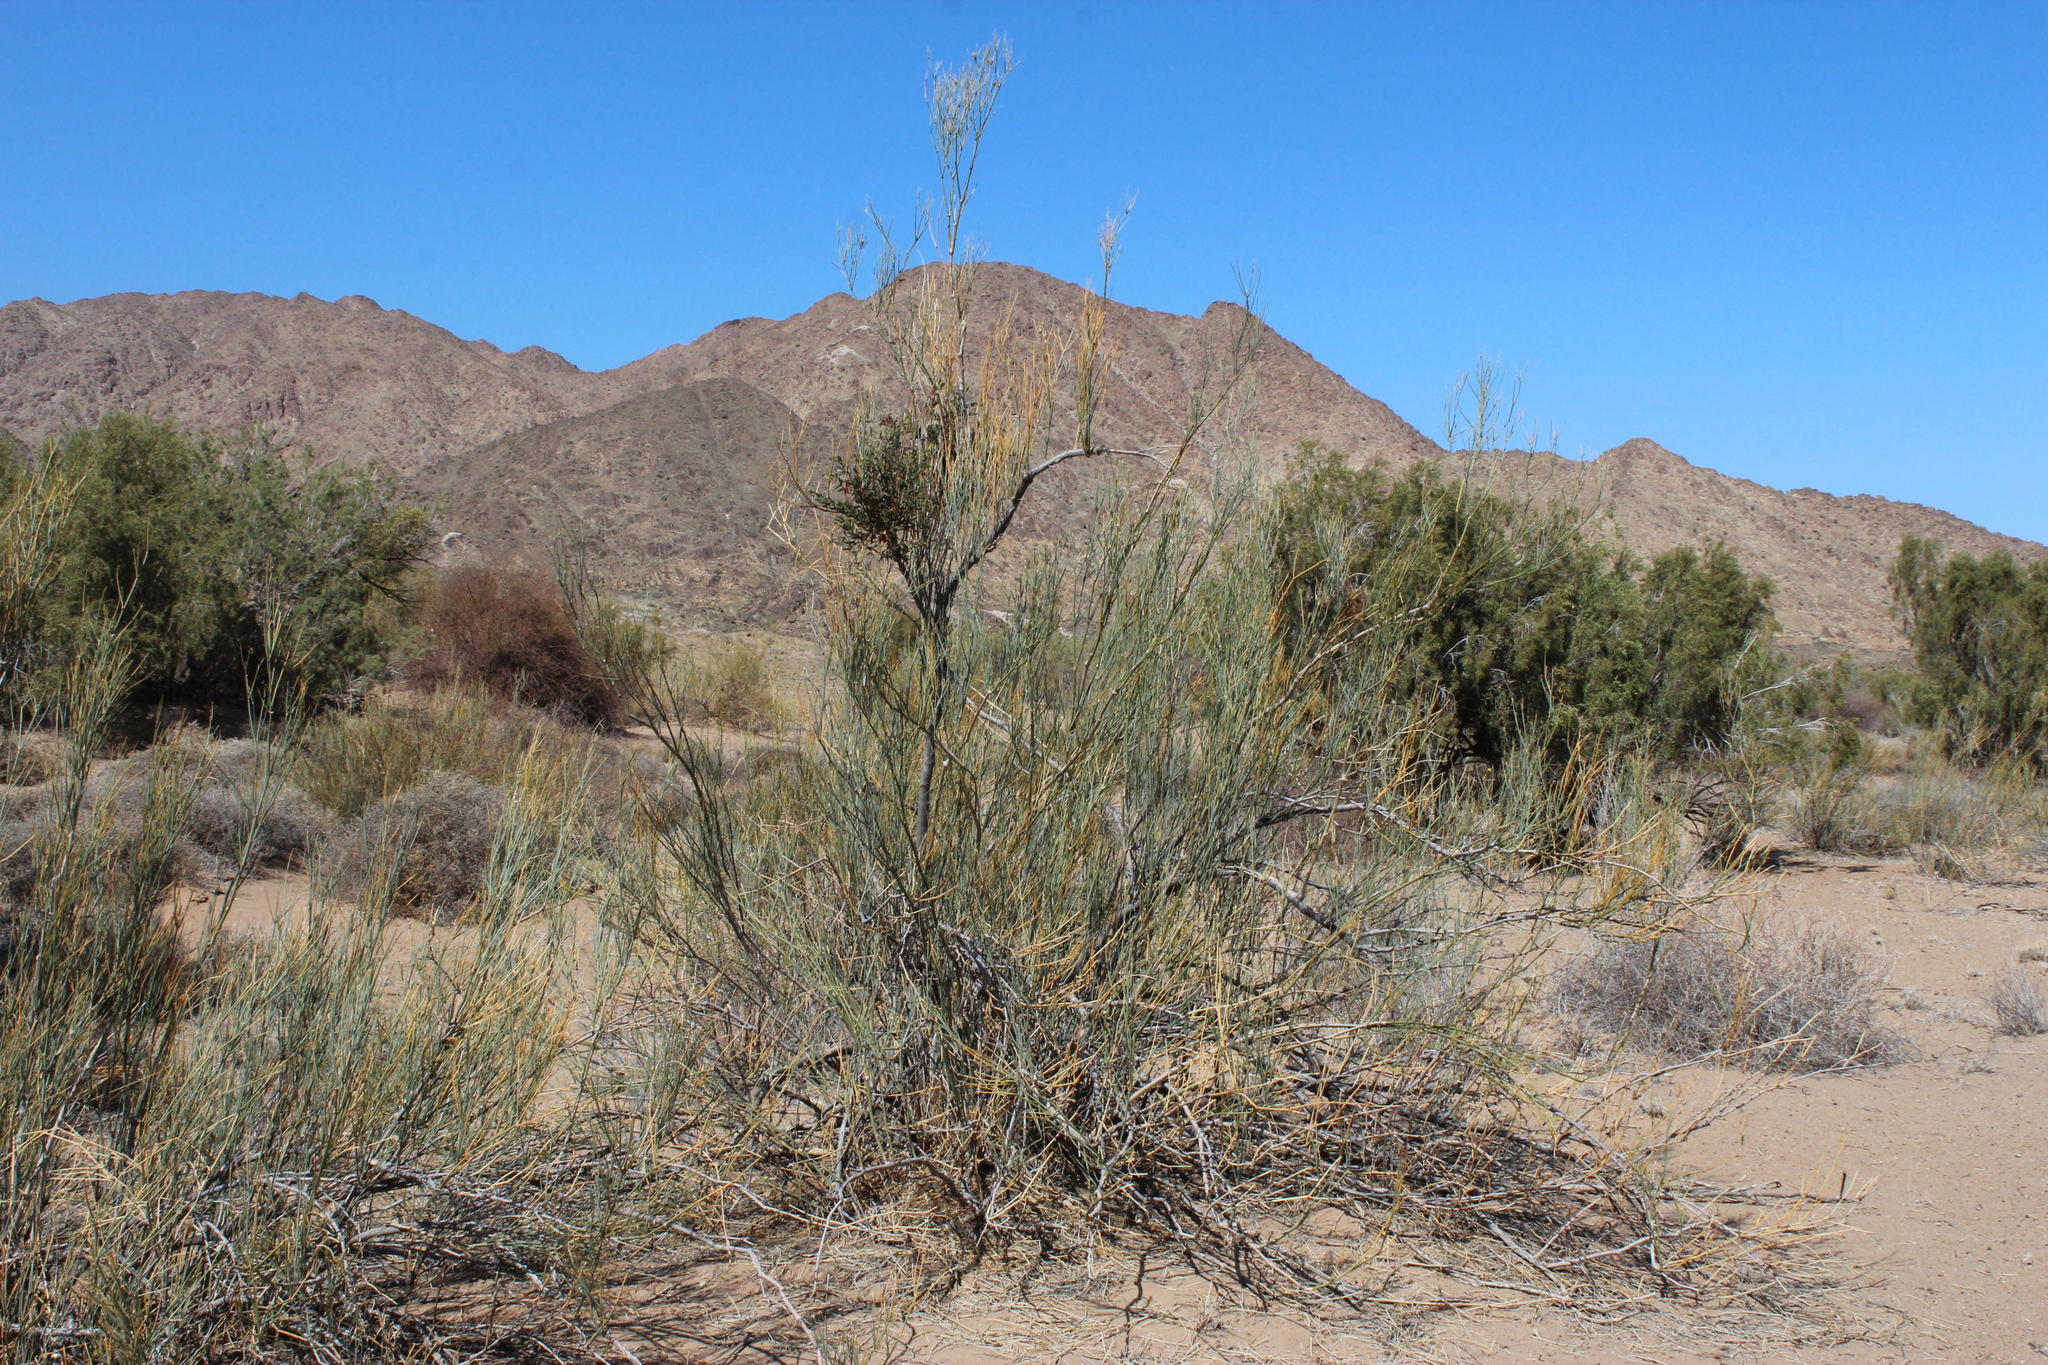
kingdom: Plantae
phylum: Tracheophyta
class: Magnoliopsida
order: Zygophyllales
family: Zygophyllaceae
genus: Sisyndite
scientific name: Sisyndite spartea
